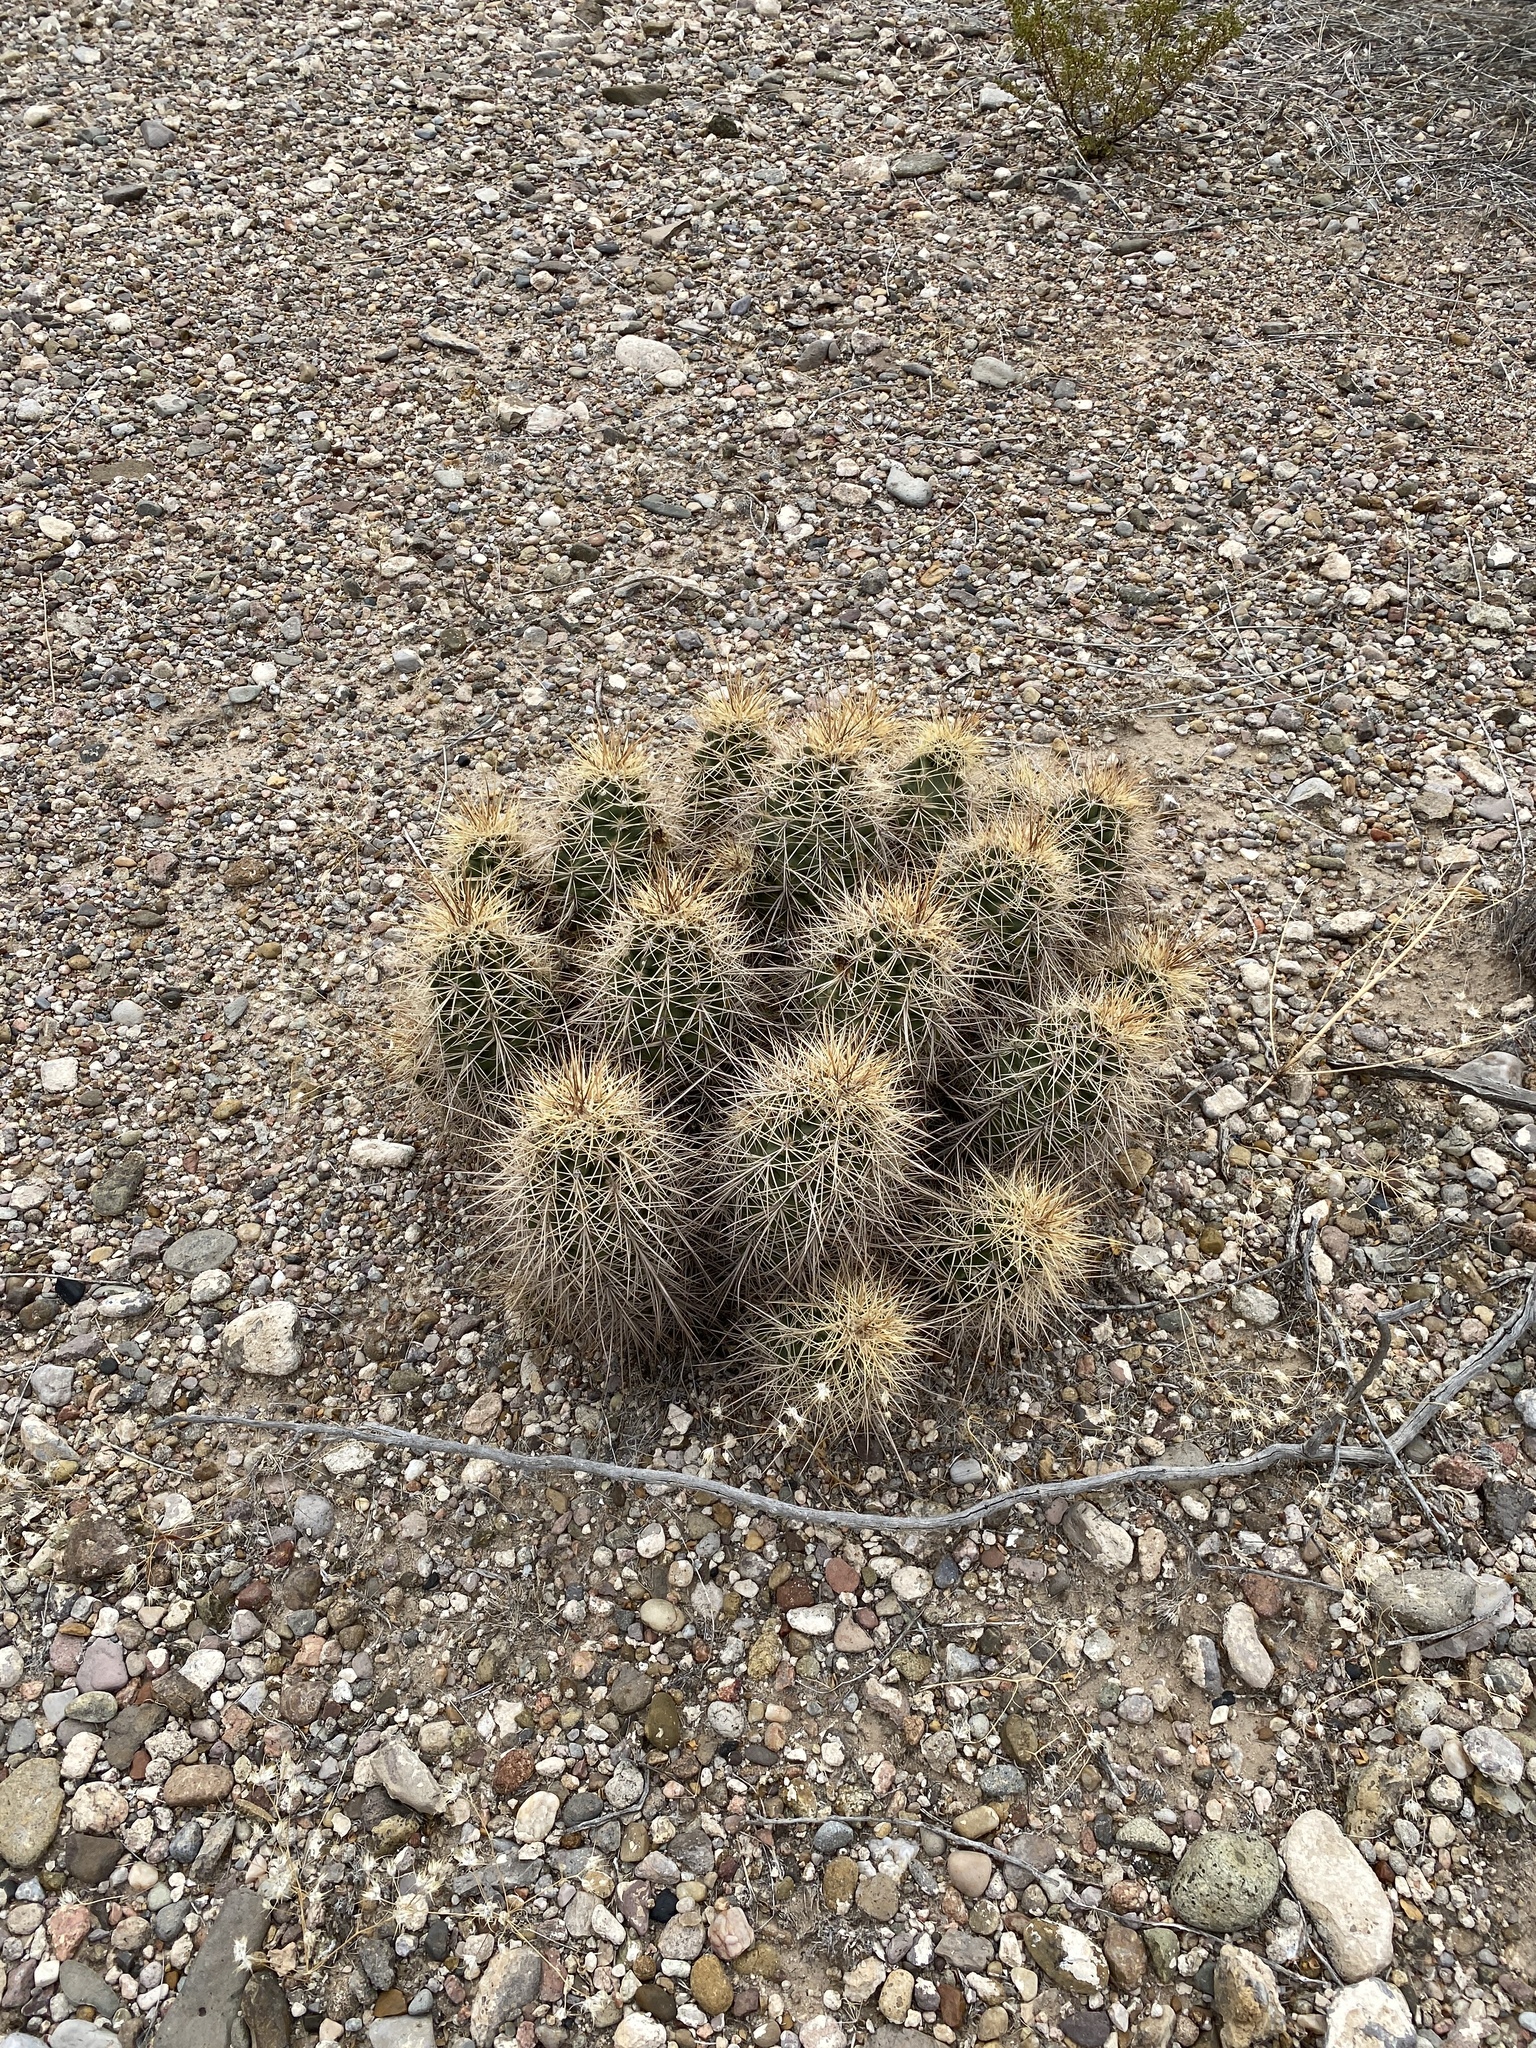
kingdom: Plantae
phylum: Tracheophyta
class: Magnoliopsida
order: Caryophyllales
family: Cactaceae
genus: Echinocereus
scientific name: Echinocereus coccineus
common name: Scarlet hedgehog cactus
